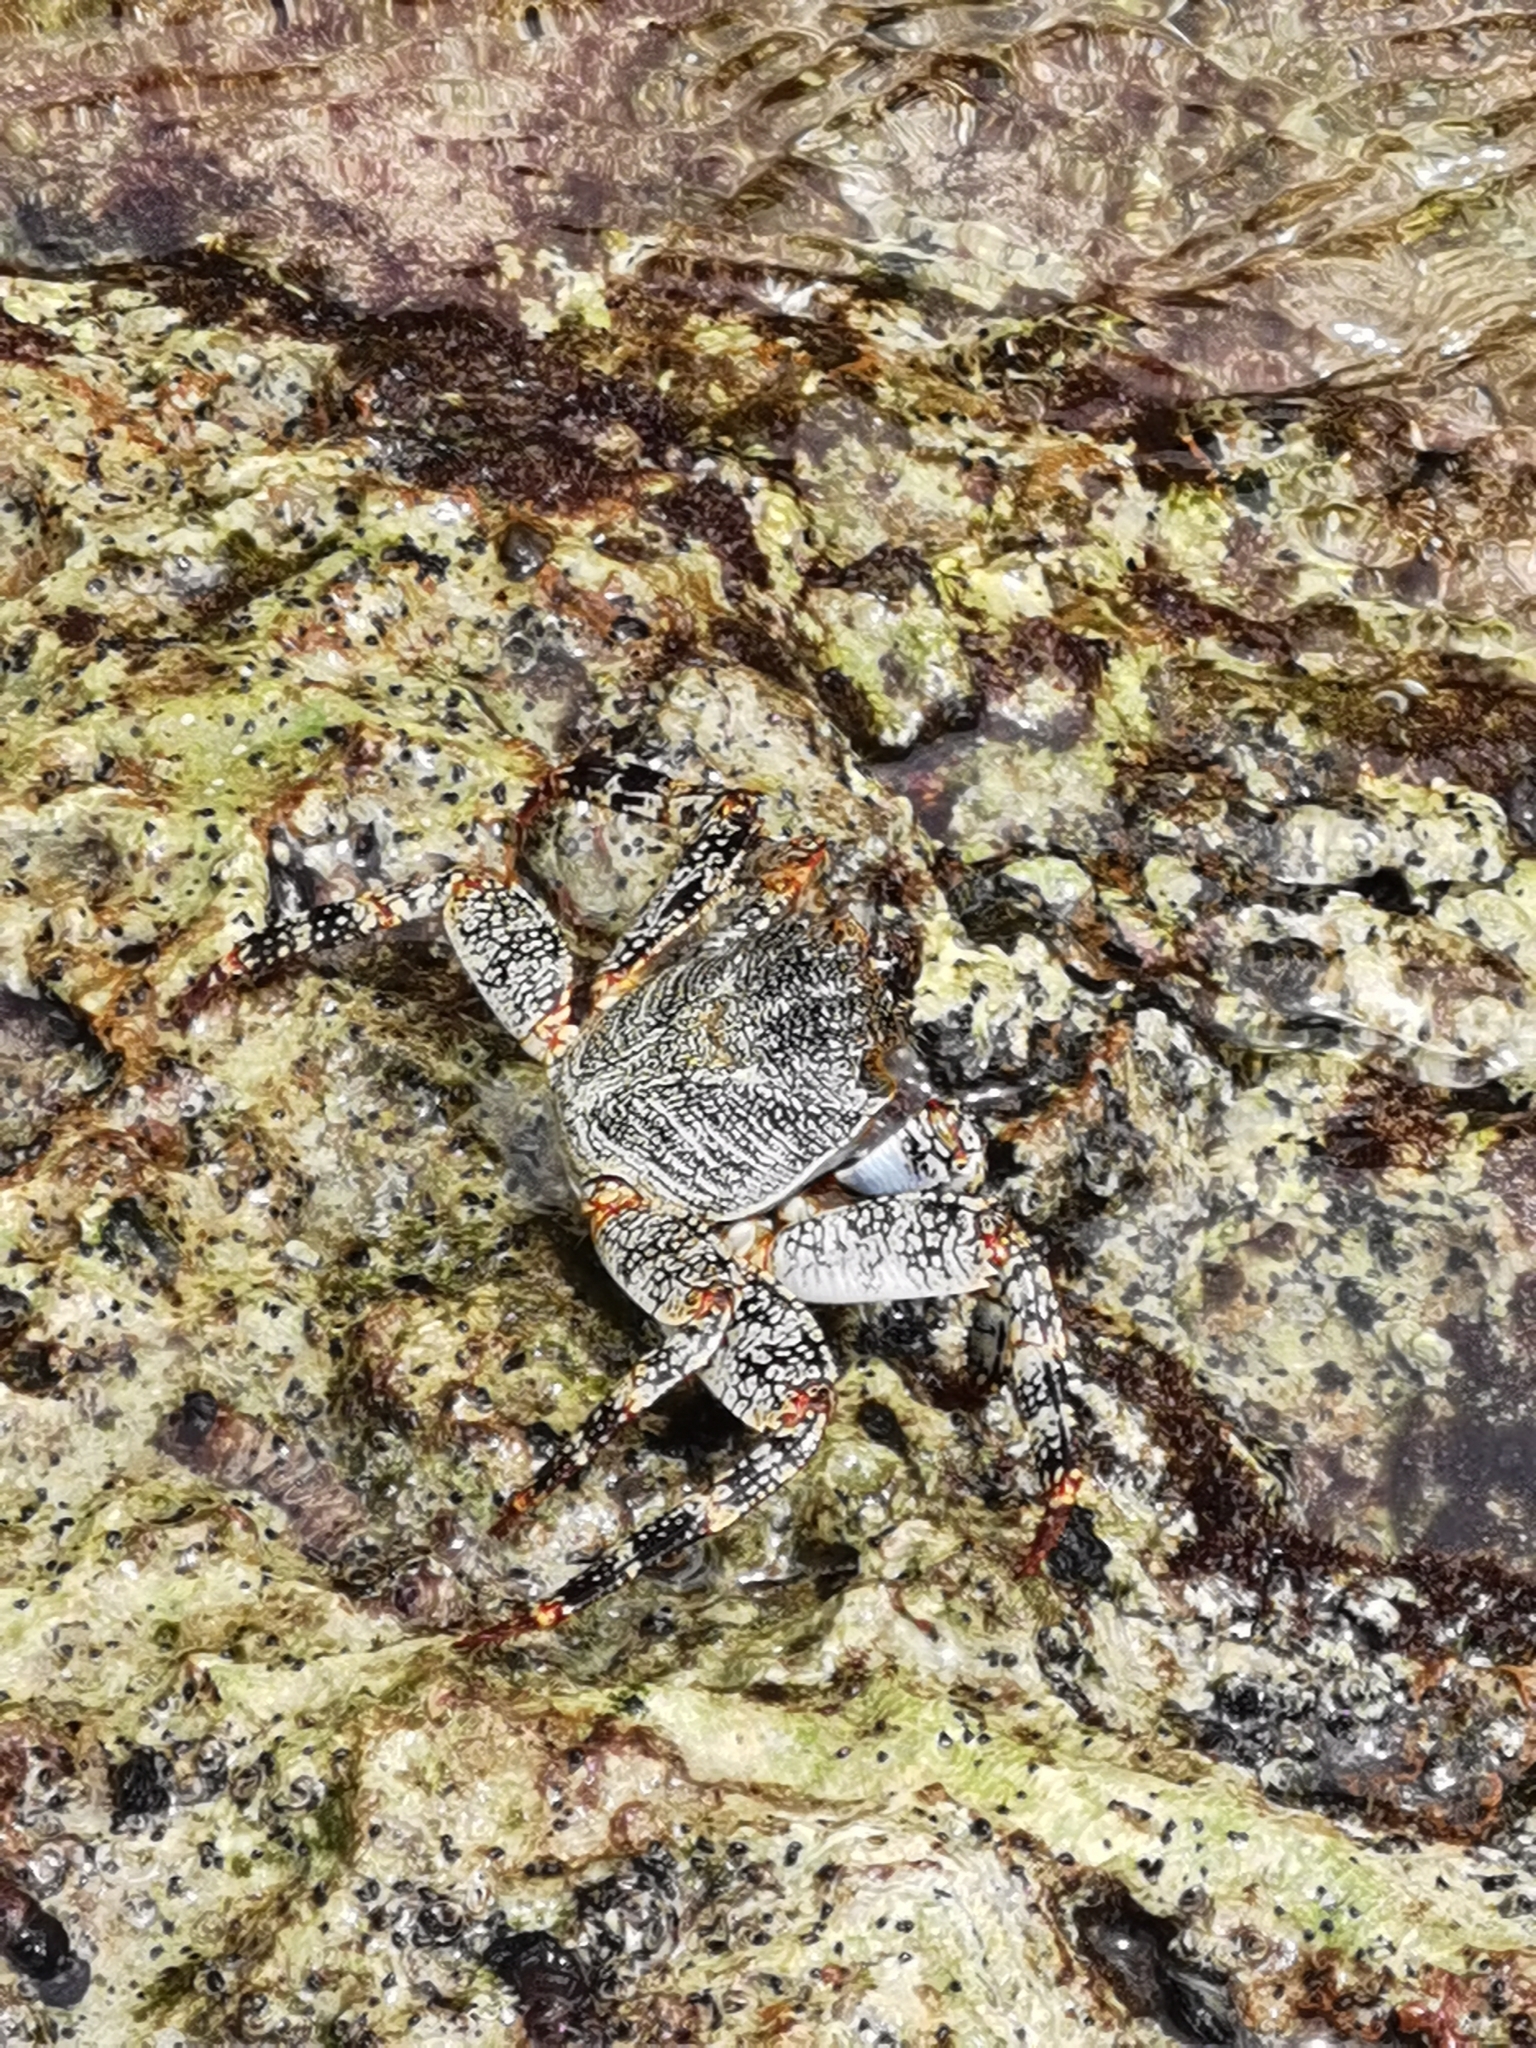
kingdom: Animalia
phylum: Arthropoda
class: Malacostraca
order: Decapoda
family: Grapsidae
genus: Grapsus
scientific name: Grapsus grapsus
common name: Sally lightfoot
